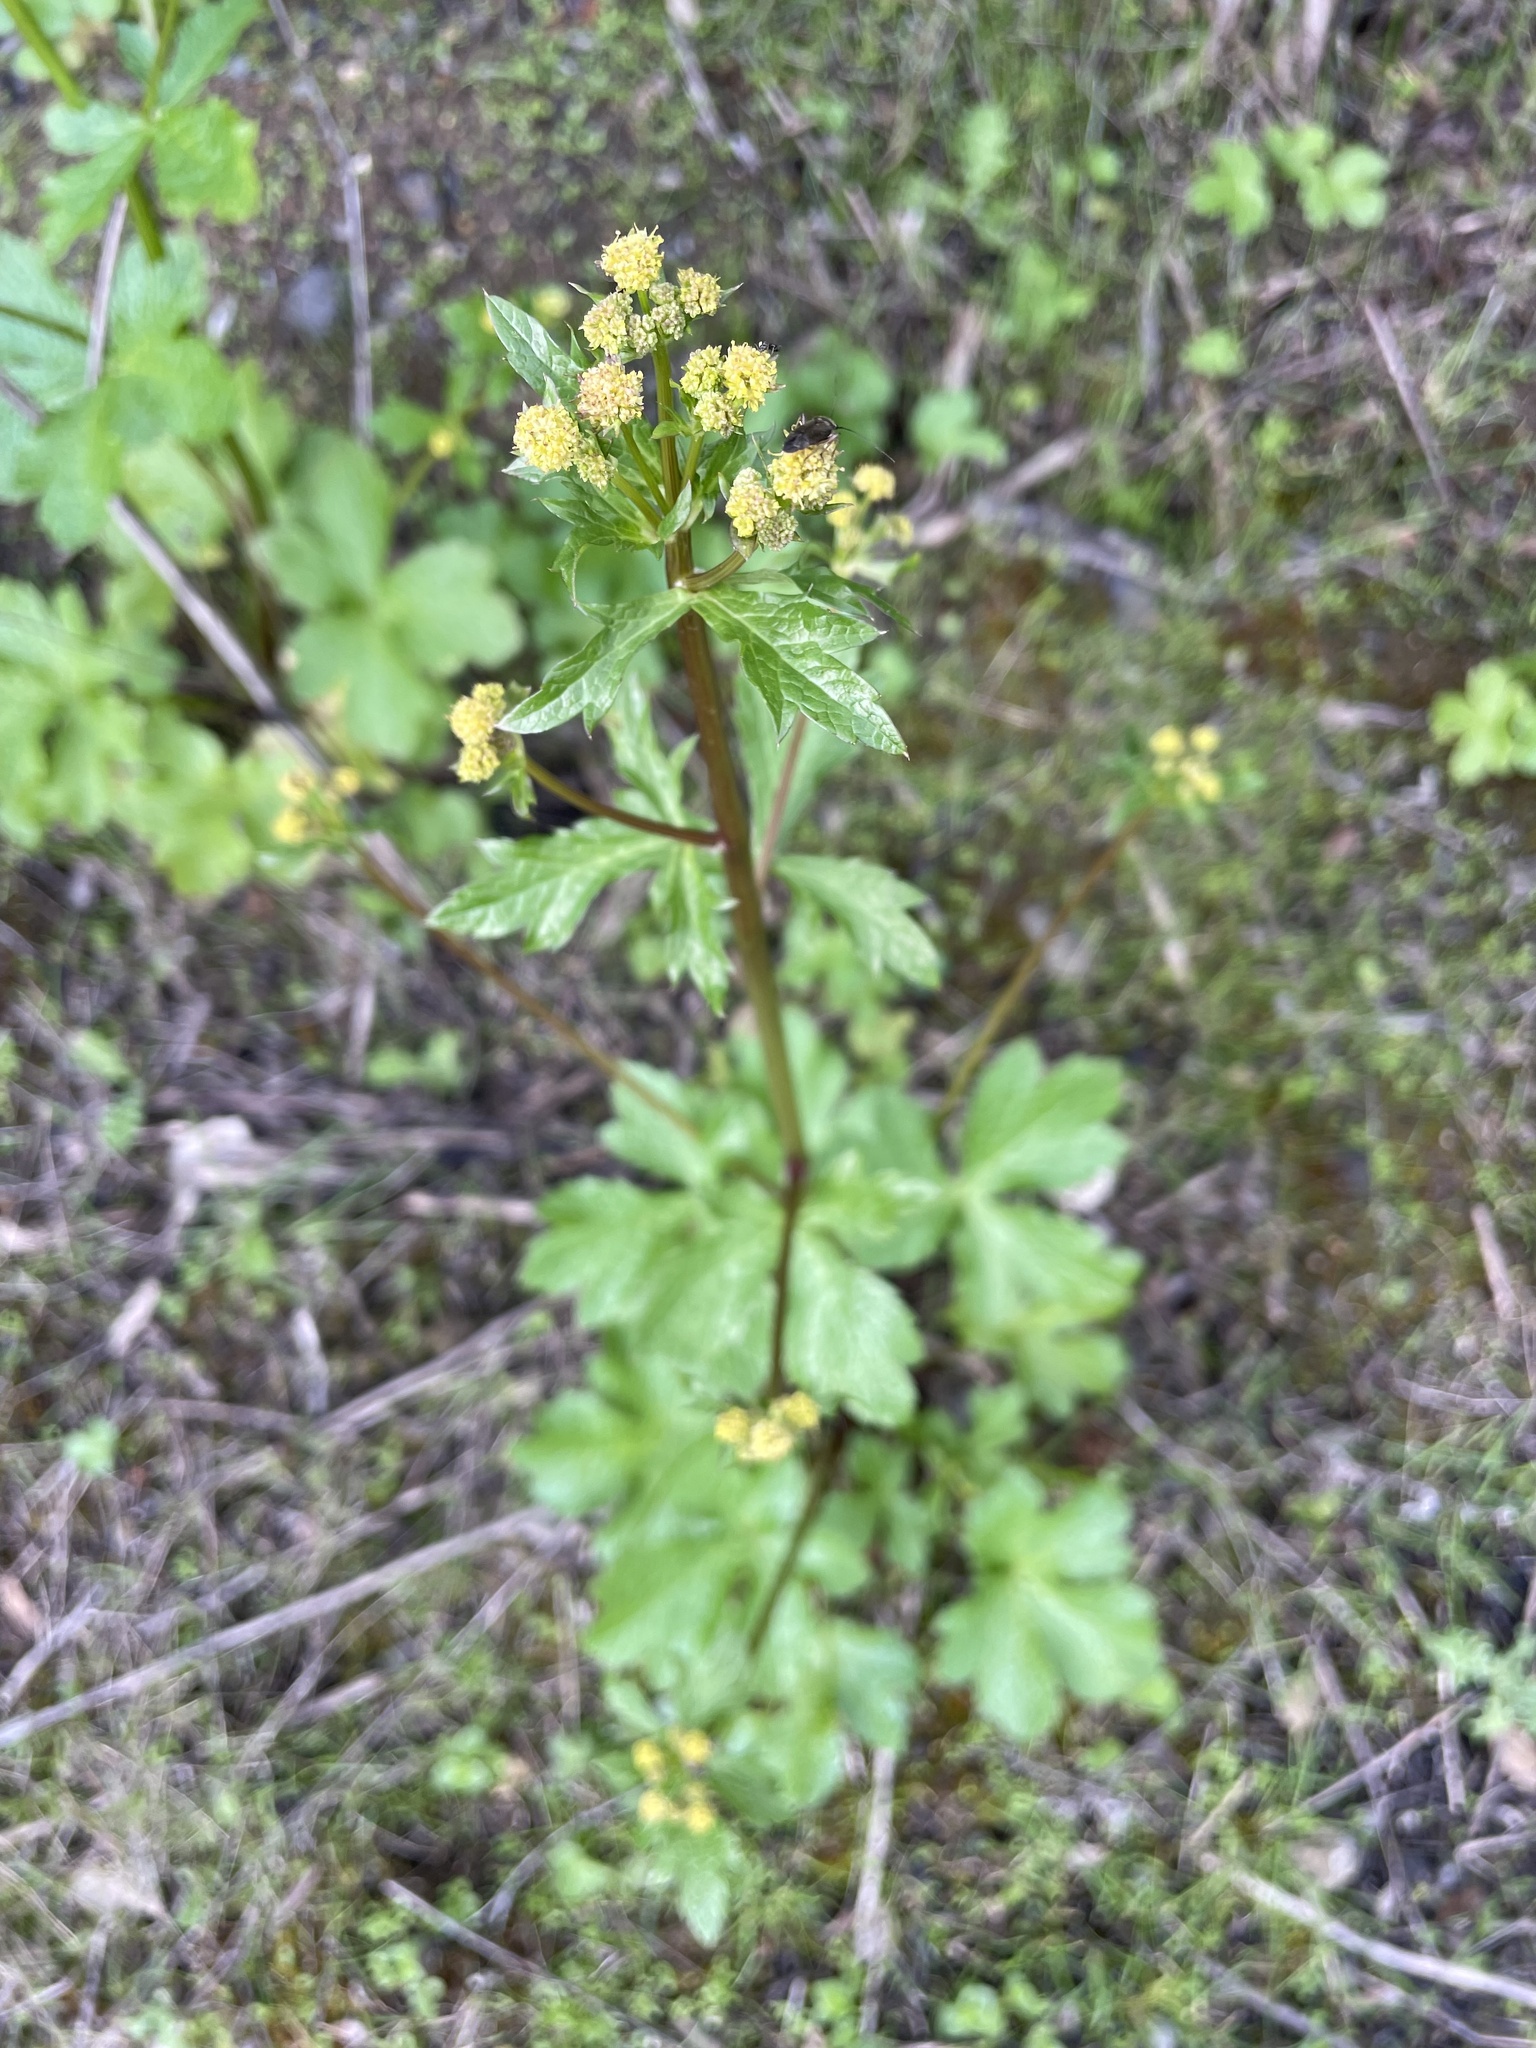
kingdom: Plantae
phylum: Tracheophyta
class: Magnoliopsida
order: Apiales
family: Apiaceae
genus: Sanicula
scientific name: Sanicula crassicaulis
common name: Western snakeroot
